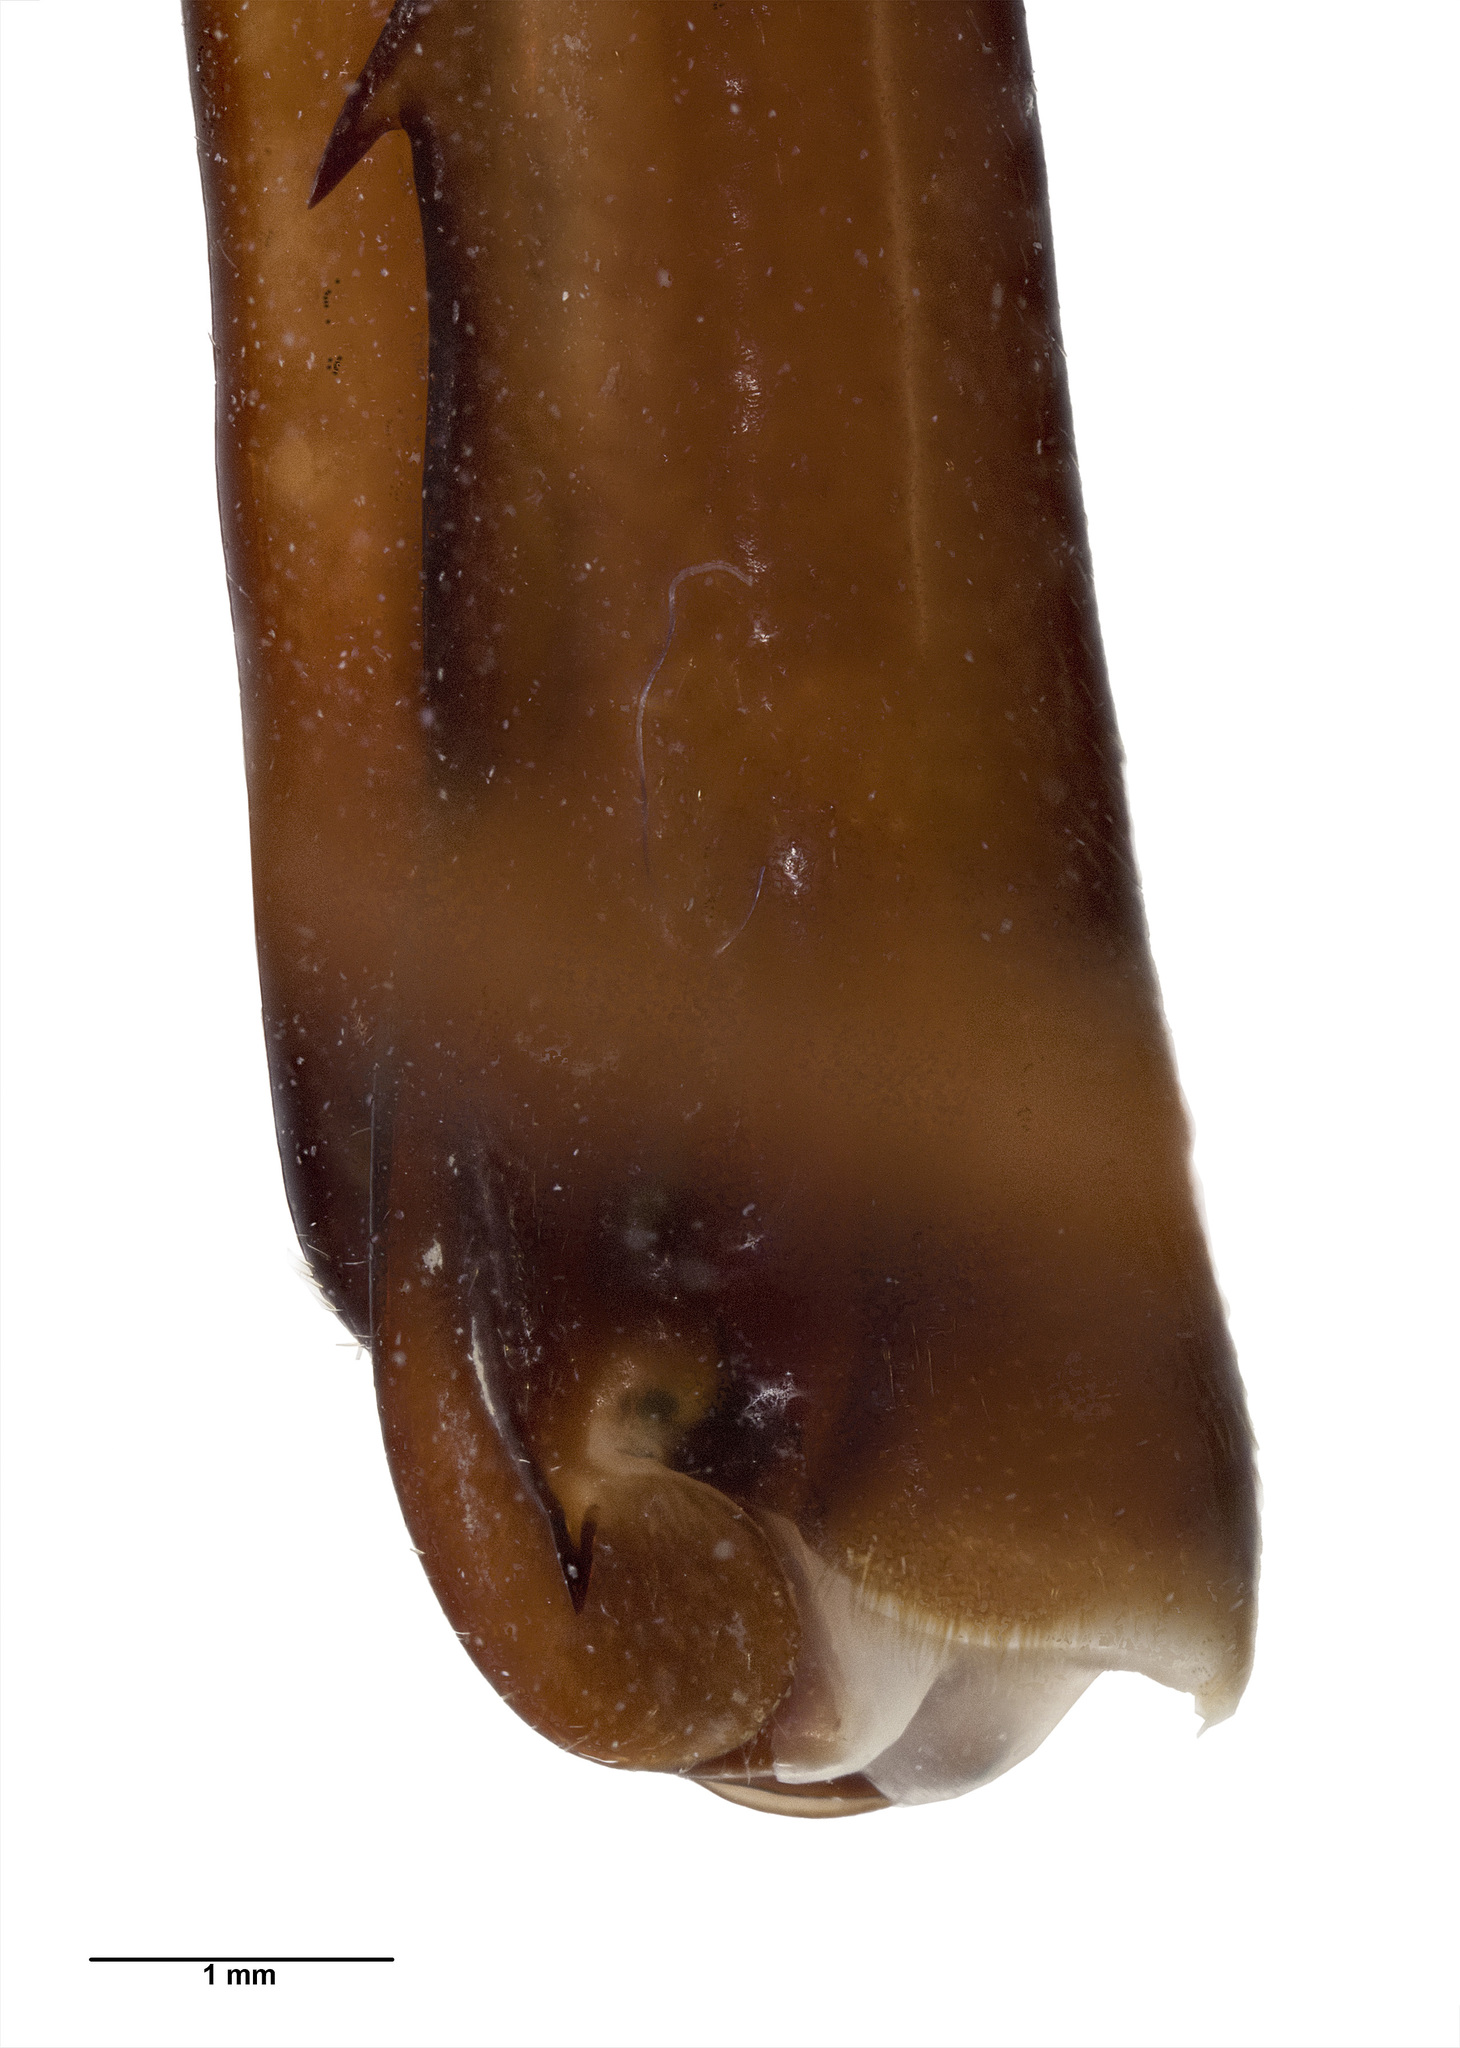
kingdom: Animalia
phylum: Arthropoda
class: Insecta
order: Orthoptera
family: Rhaphidophoridae
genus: Pachyrhamma
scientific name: Pachyrhamma fusca
